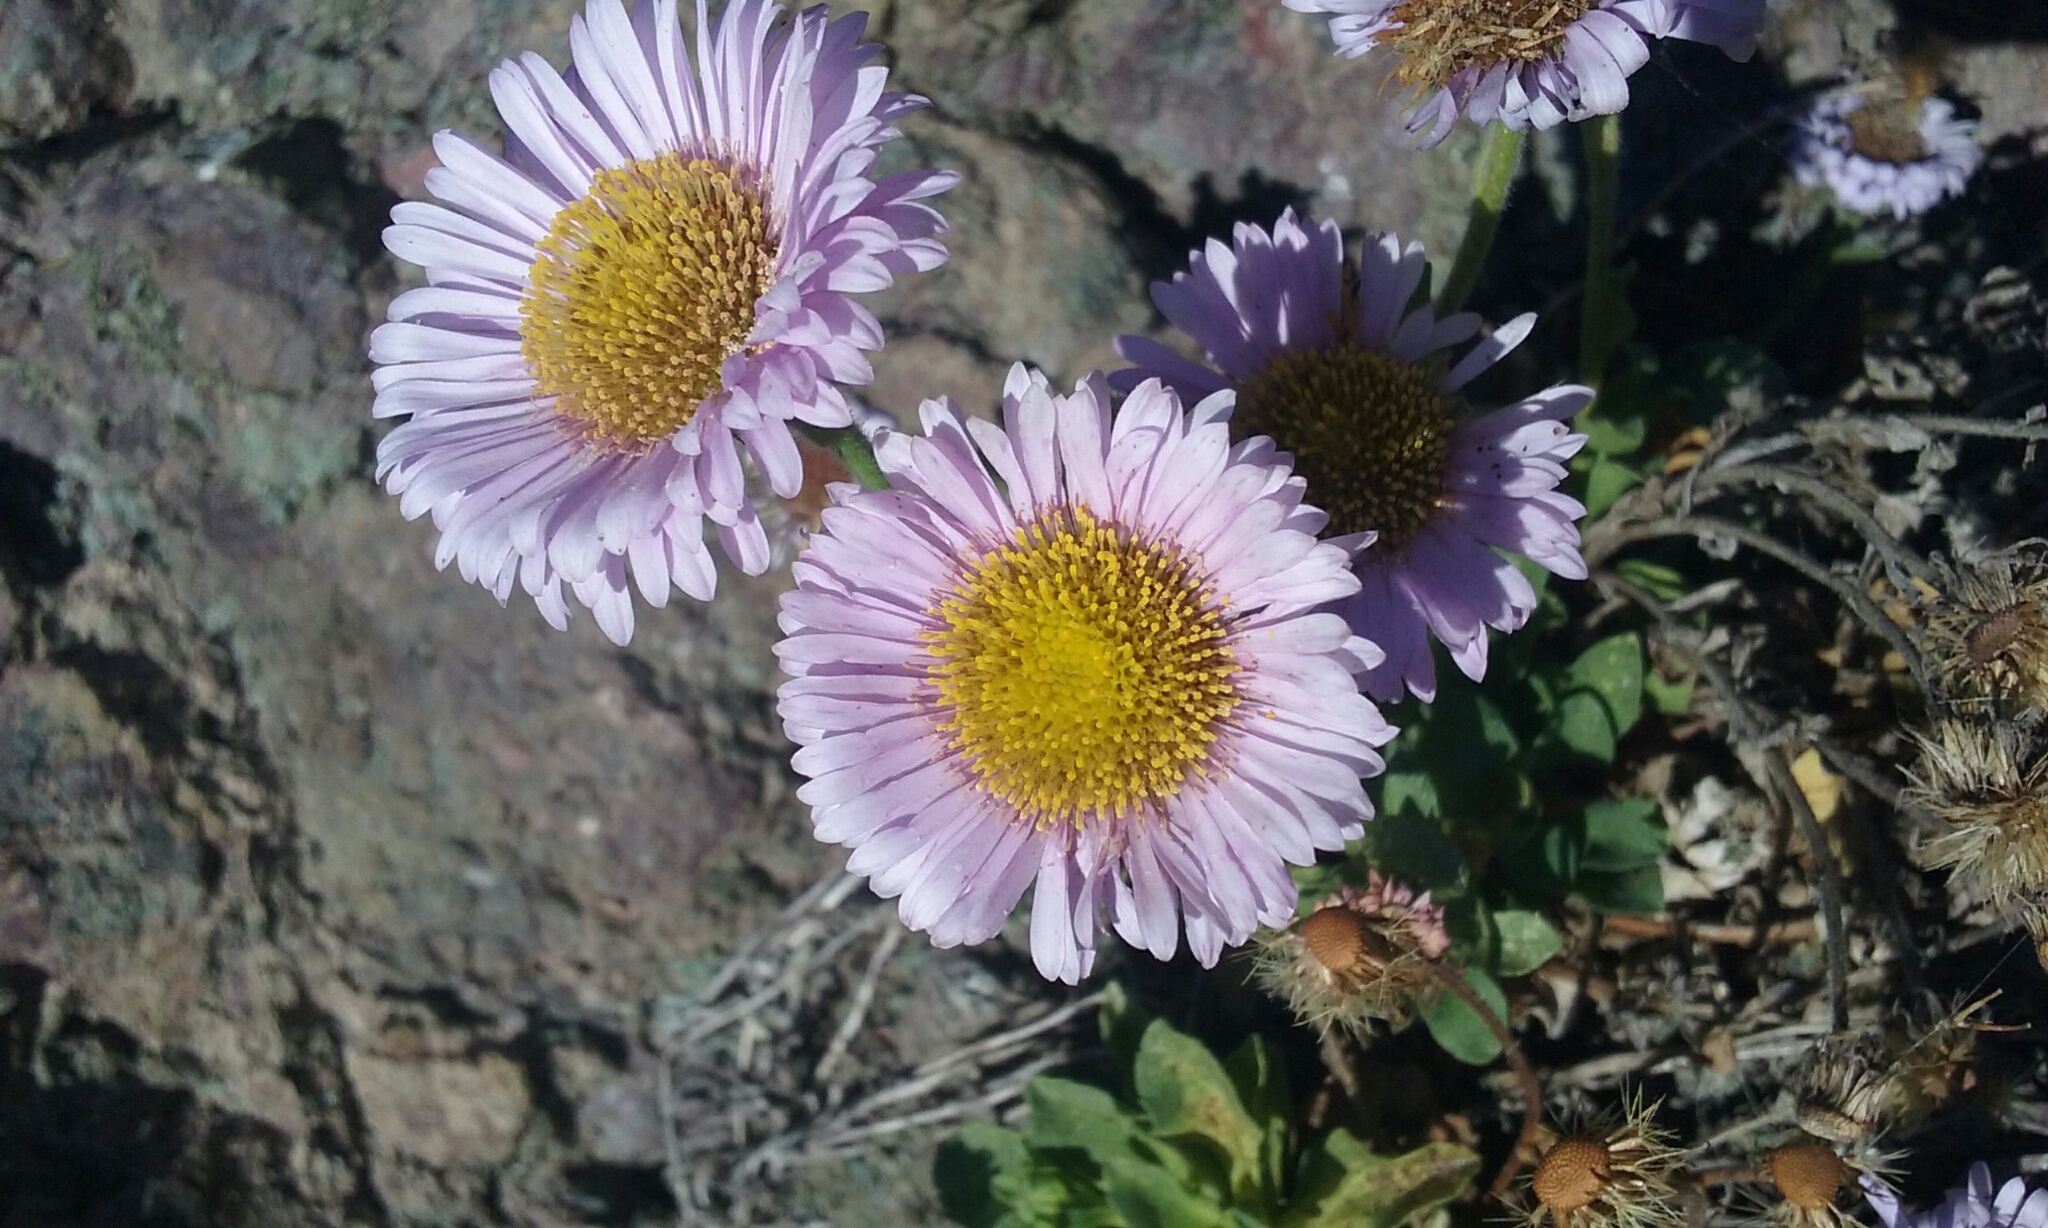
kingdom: Plantae
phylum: Tracheophyta
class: Magnoliopsida
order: Asterales
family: Asteraceae
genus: Erigeron
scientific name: Erigeron glaucus
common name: Seaside daisy
